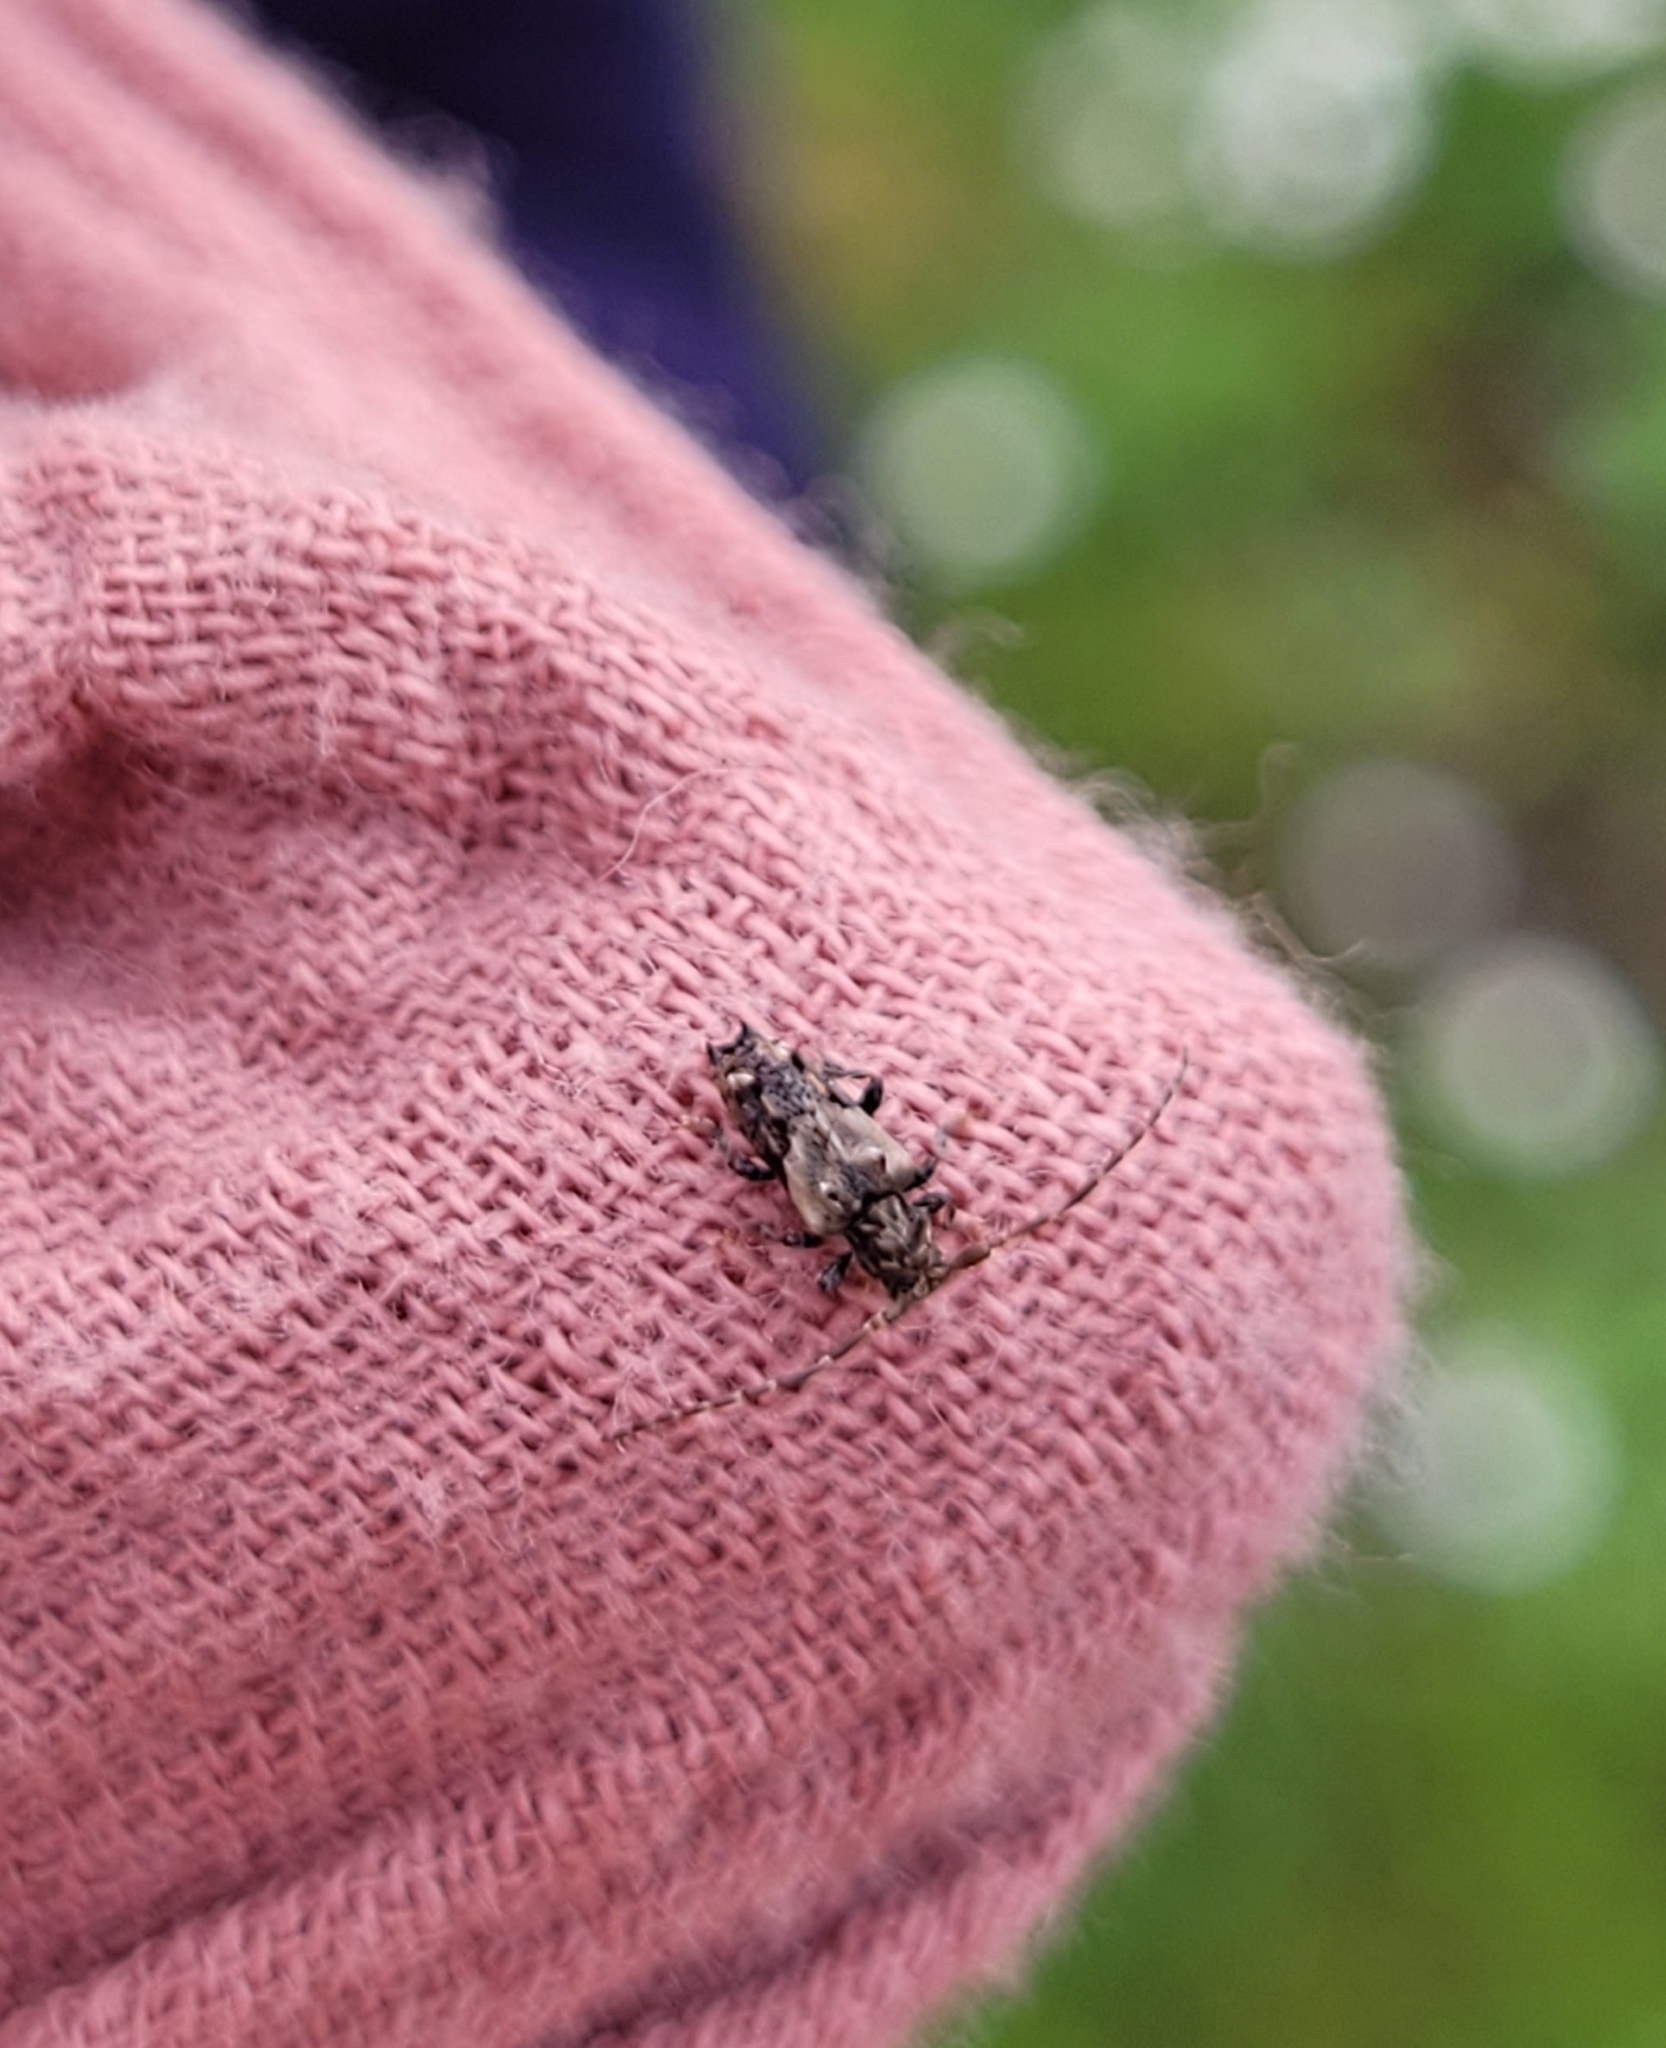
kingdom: Animalia
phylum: Arthropoda
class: Insecta
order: Coleoptera
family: Cerambycidae
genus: Pogonocherus
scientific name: Pogonocherus hispidus
